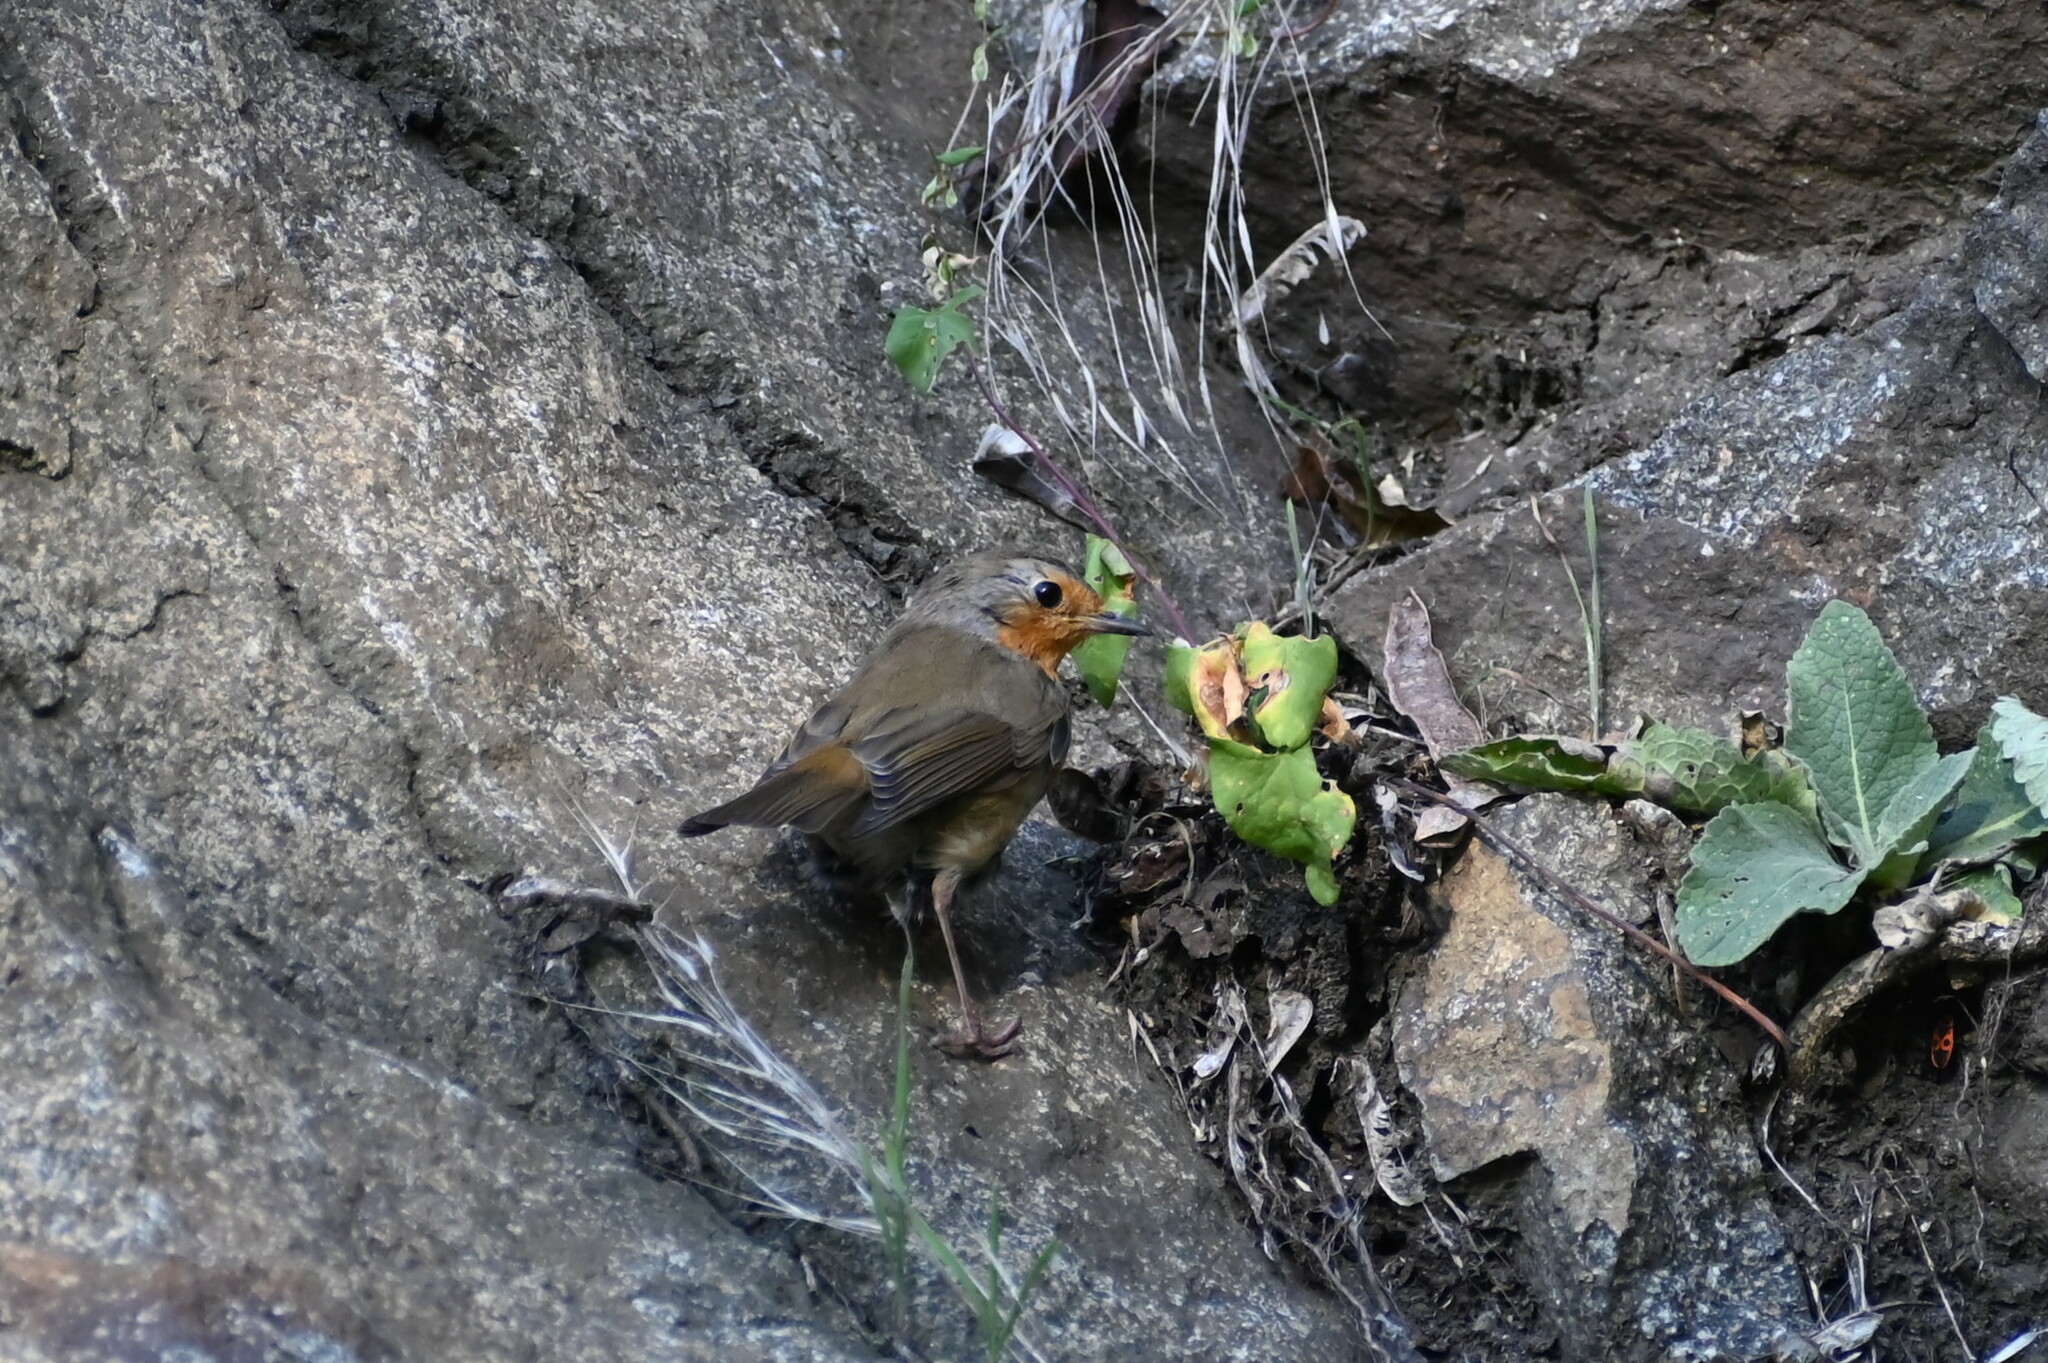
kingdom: Animalia
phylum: Chordata
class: Aves
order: Passeriformes
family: Muscicapidae
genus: Erithacus
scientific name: Erithacus rubecula
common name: European robin
